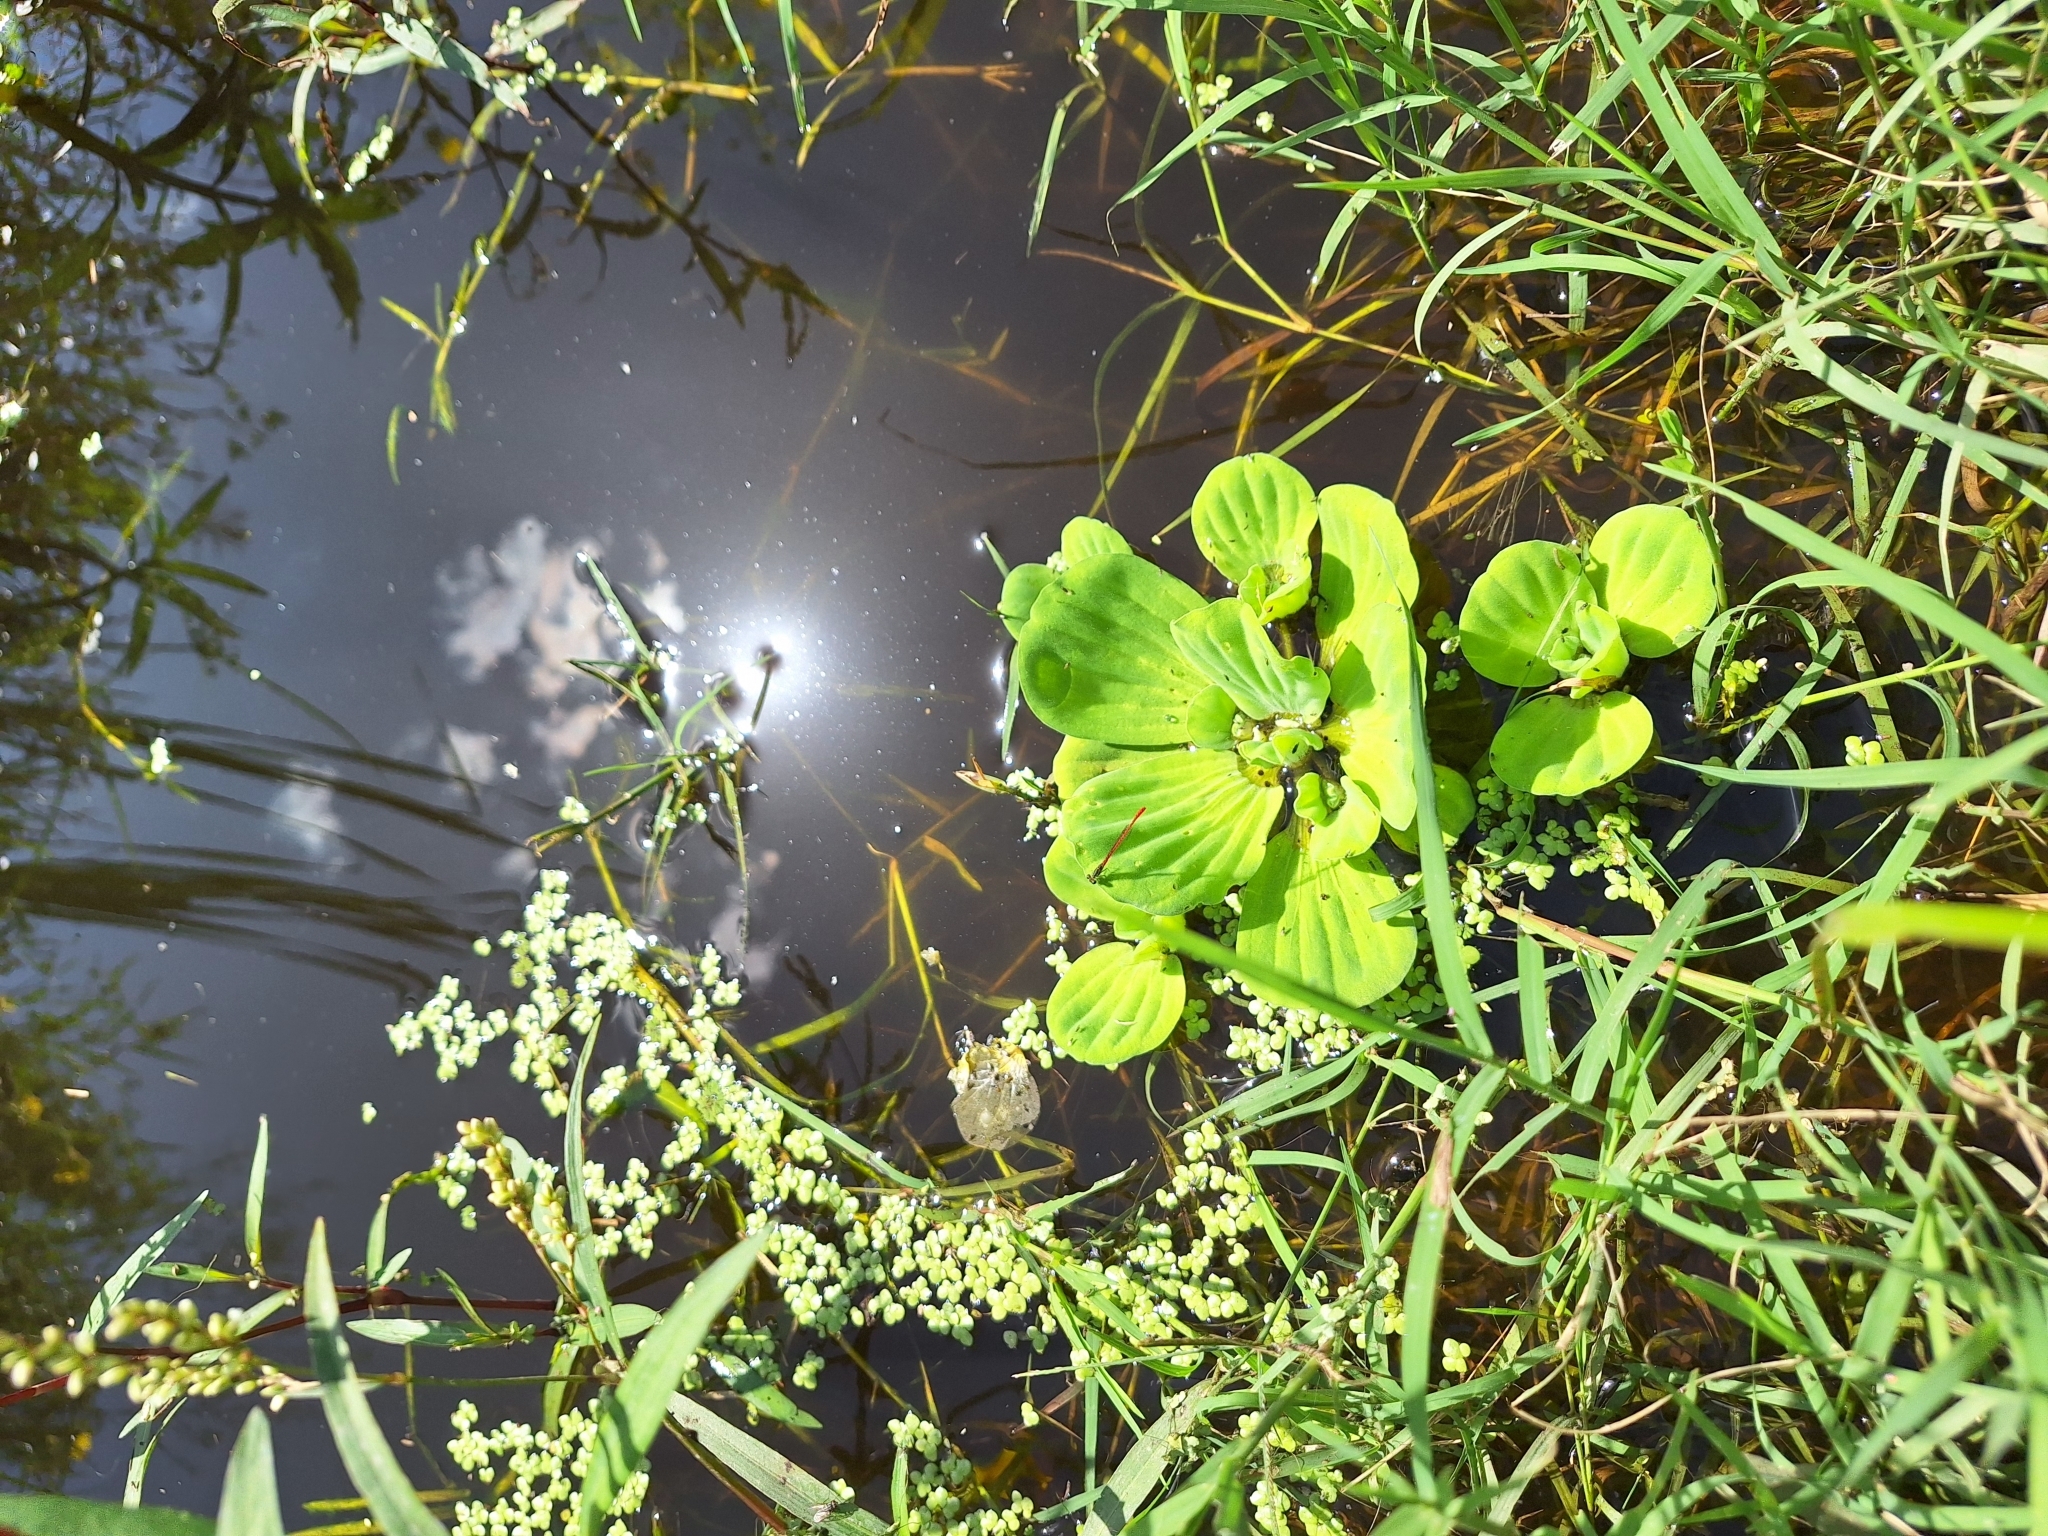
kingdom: Plantae
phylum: Tracheophyta
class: Liliopsida
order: Alismatales
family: Araceae
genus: Pistia
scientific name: Pistia stratiotes
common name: Water lettuce
